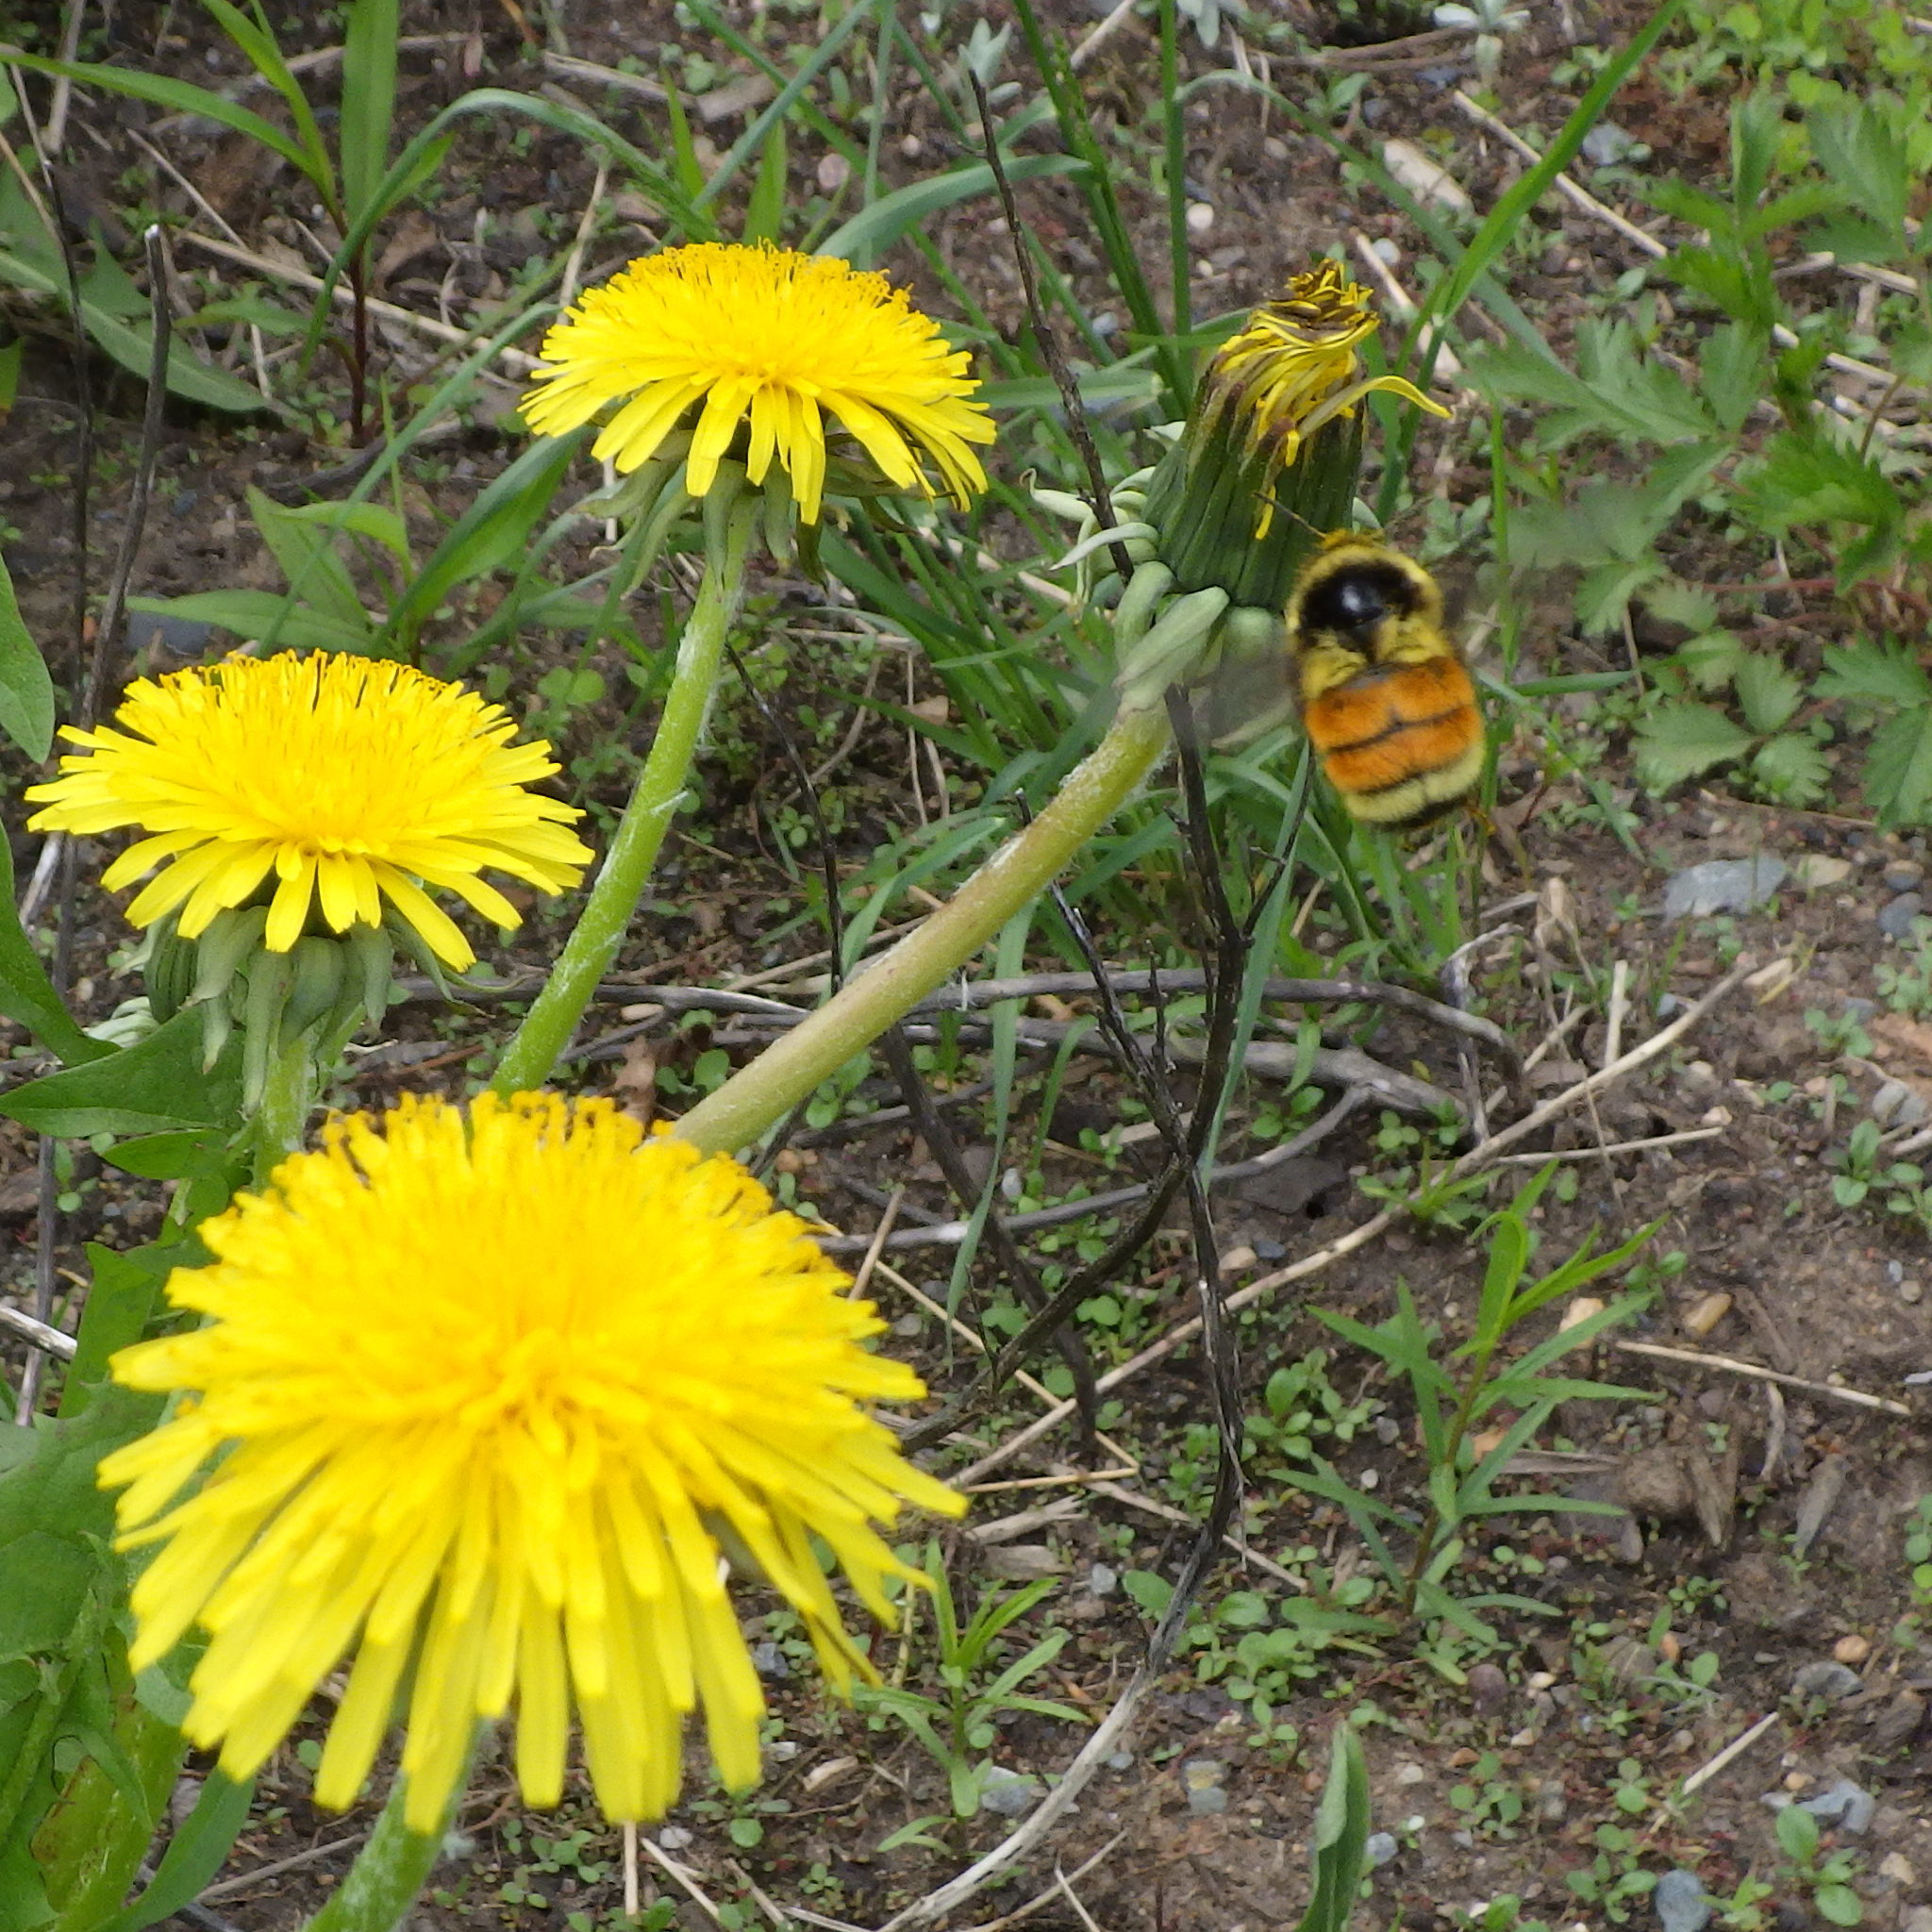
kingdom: Animalia
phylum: Arthropoda
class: Insecta
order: Hymenoptera
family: Apidae
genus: Bombus
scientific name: Bombus ternarius
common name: Tri-colored bumble bee
